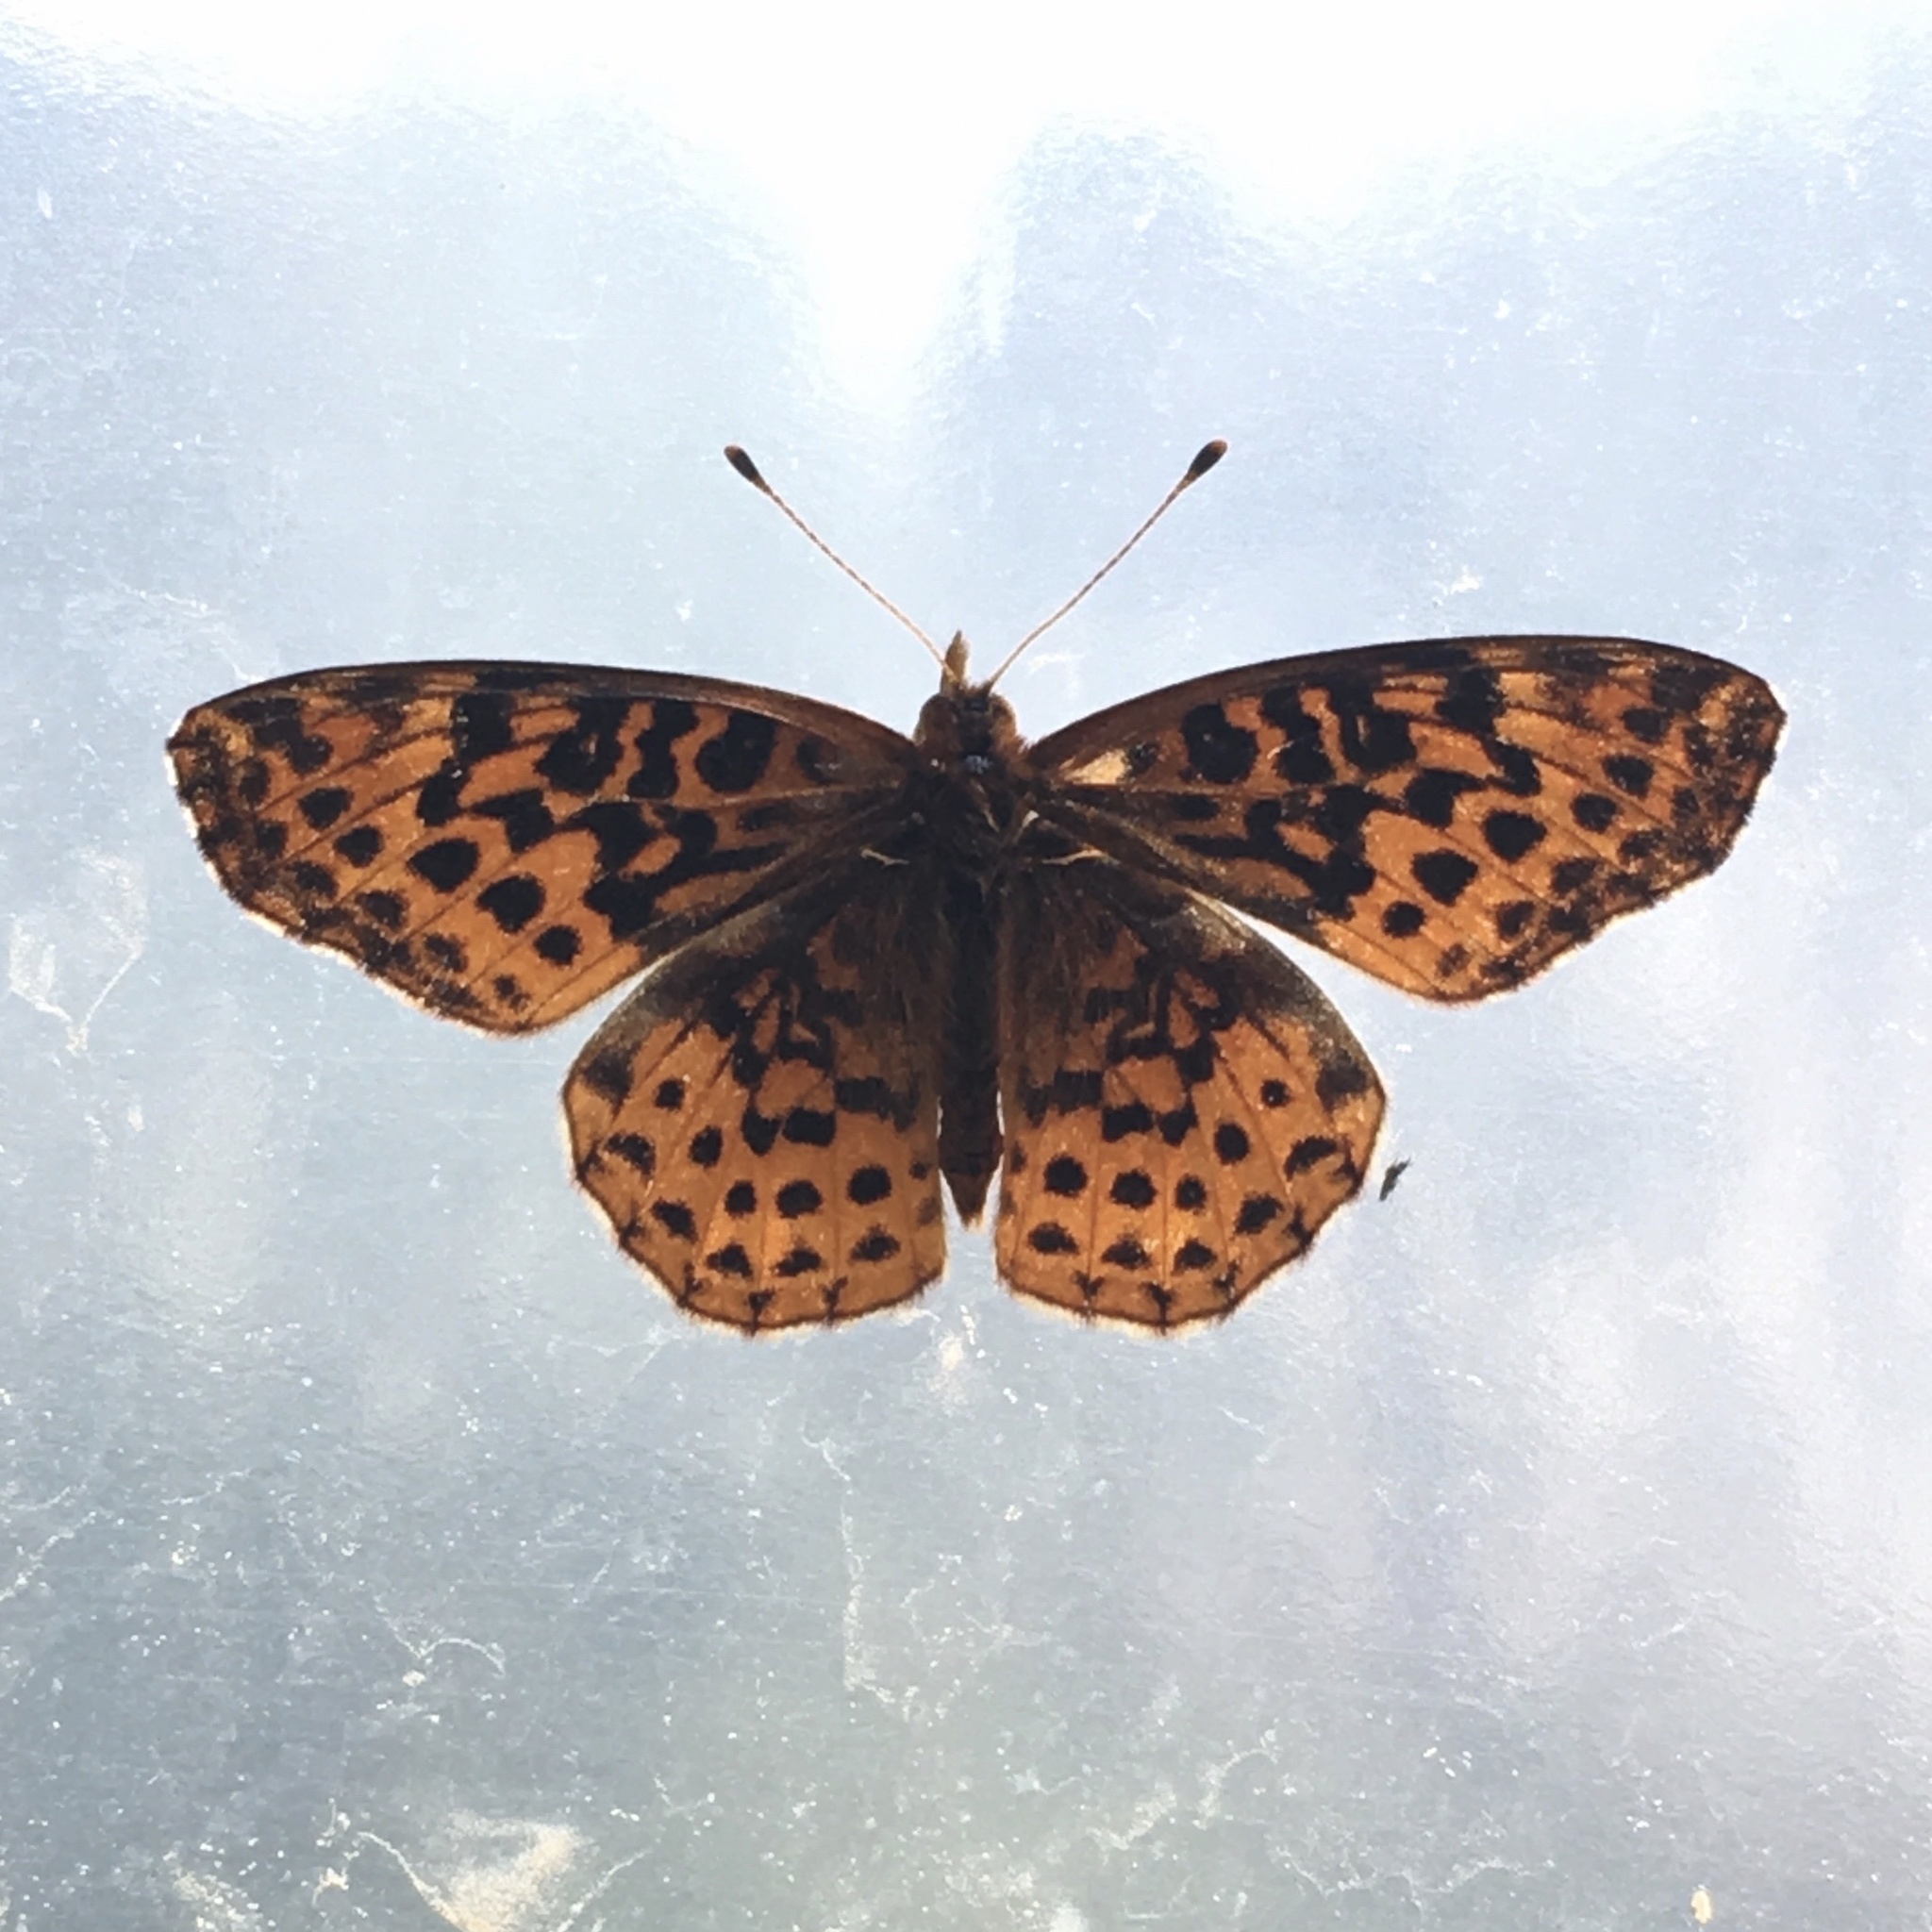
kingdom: Animalia
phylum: Arthropoda
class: Insecta
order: Lepidoptera
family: Nymphalidae
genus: Clossiana
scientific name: Clossiana toddi
